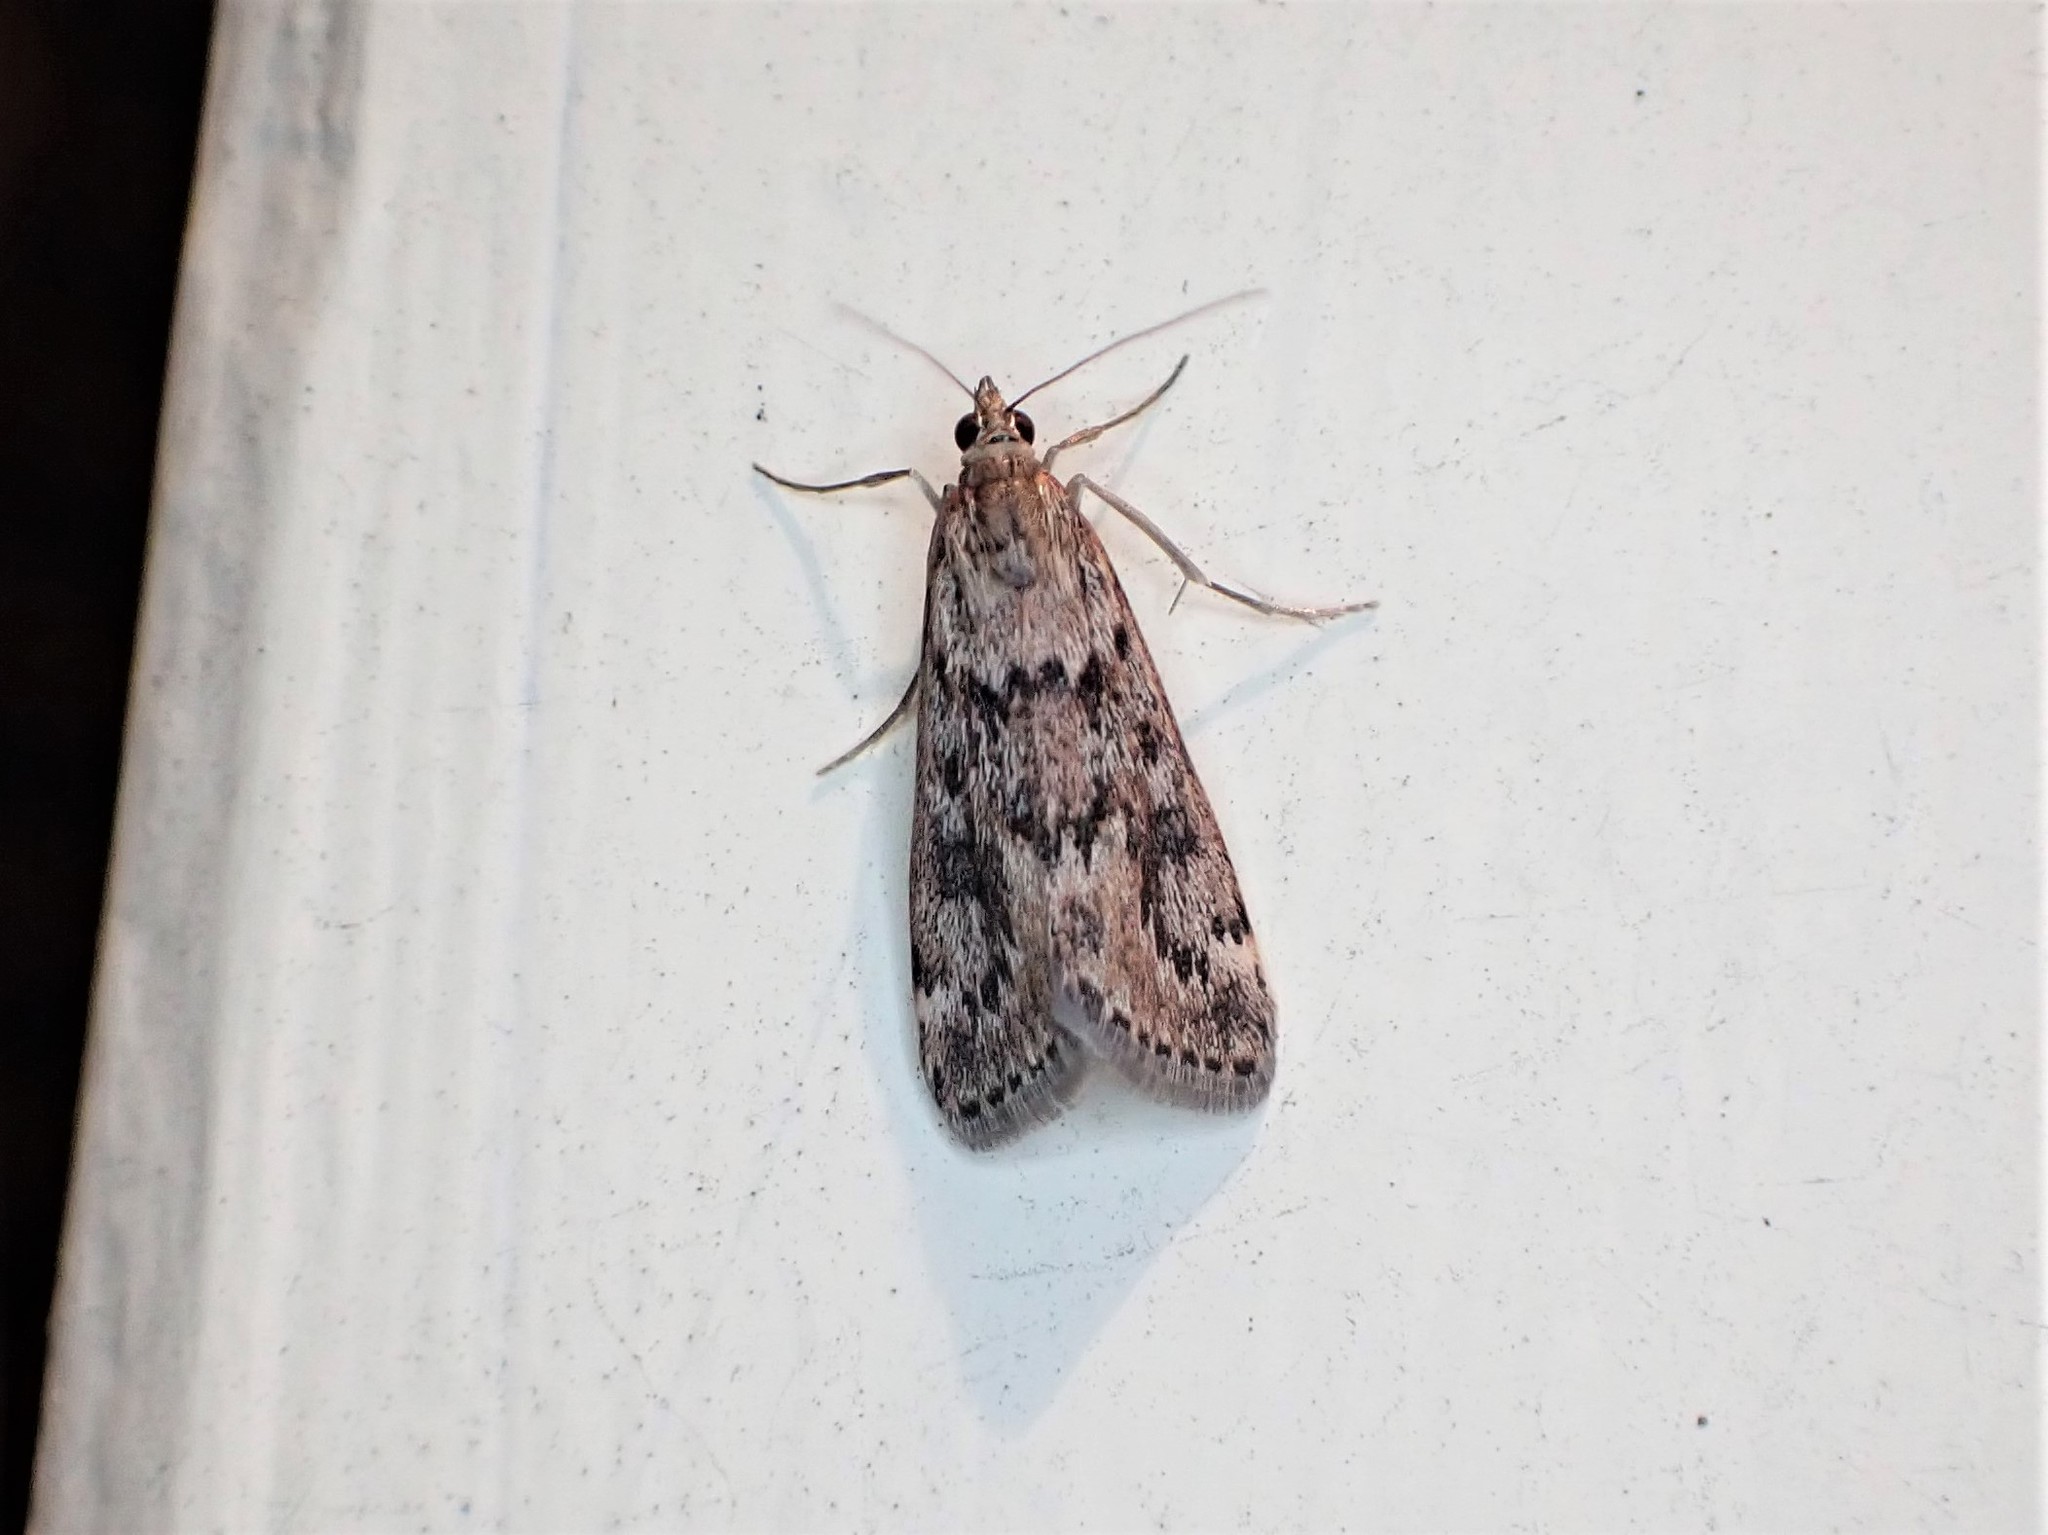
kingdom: Animalia
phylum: Arthropoda
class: Insecta
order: Lepidoptera
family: Crambidae
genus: Achyra
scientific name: Achyra affinitalis
